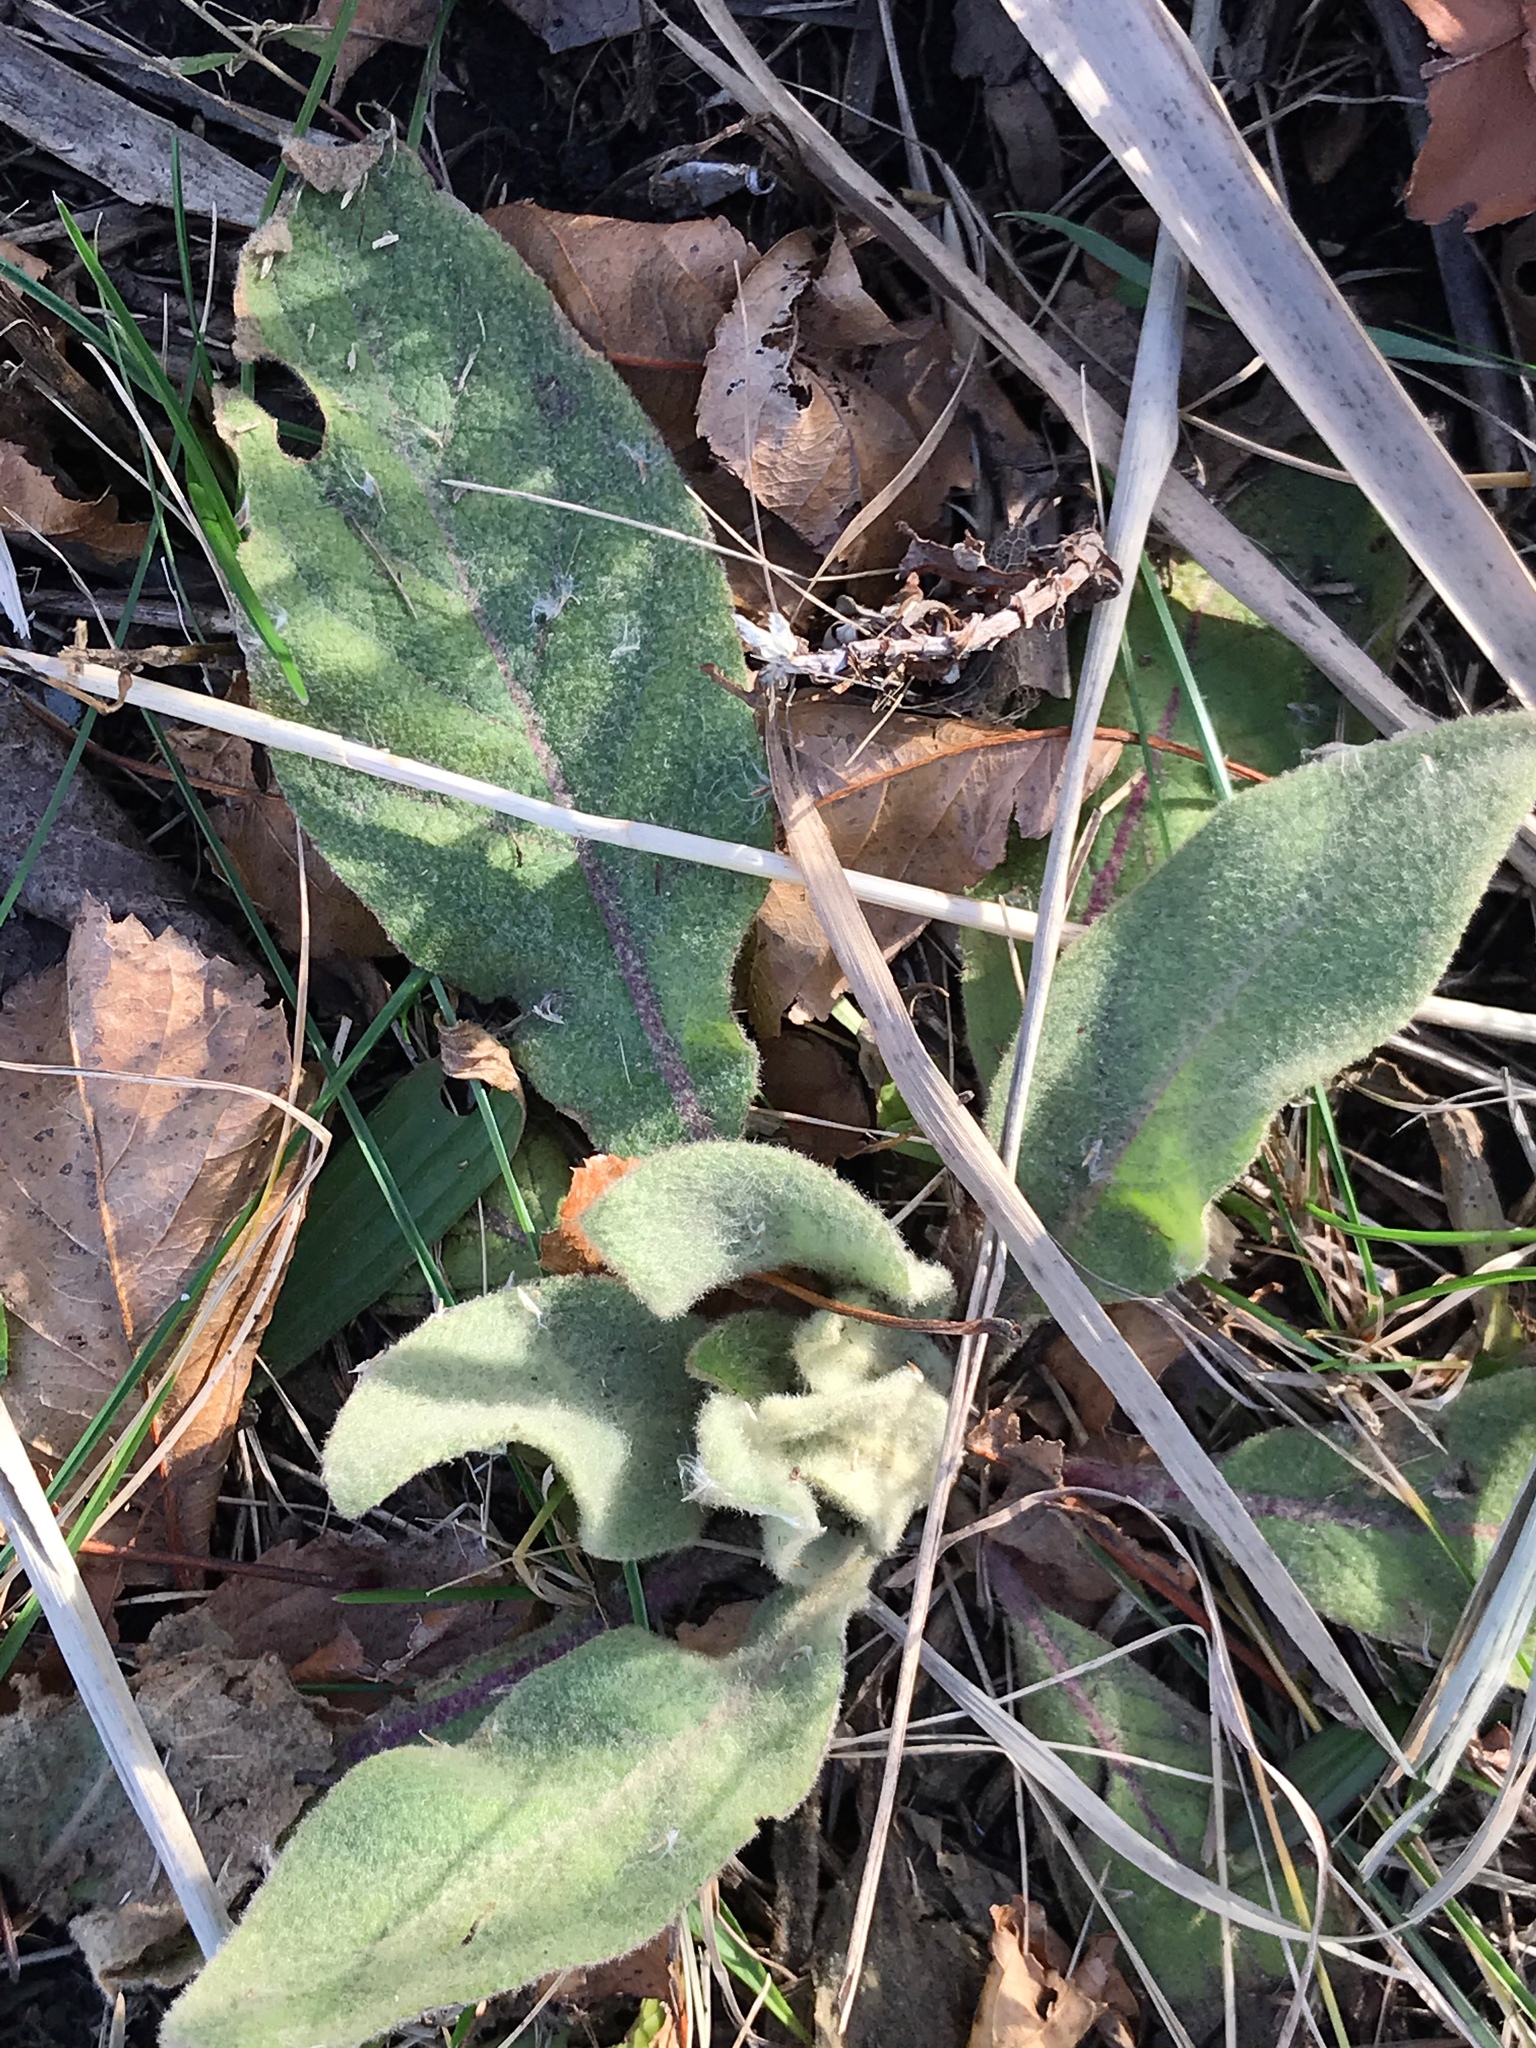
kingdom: Plantae
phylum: Tracheophyta
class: Magnoliopsida
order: Lamiales
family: Scrophulariaceae
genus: Verbascum
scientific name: Verbascum thapsus
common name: Common mullein
